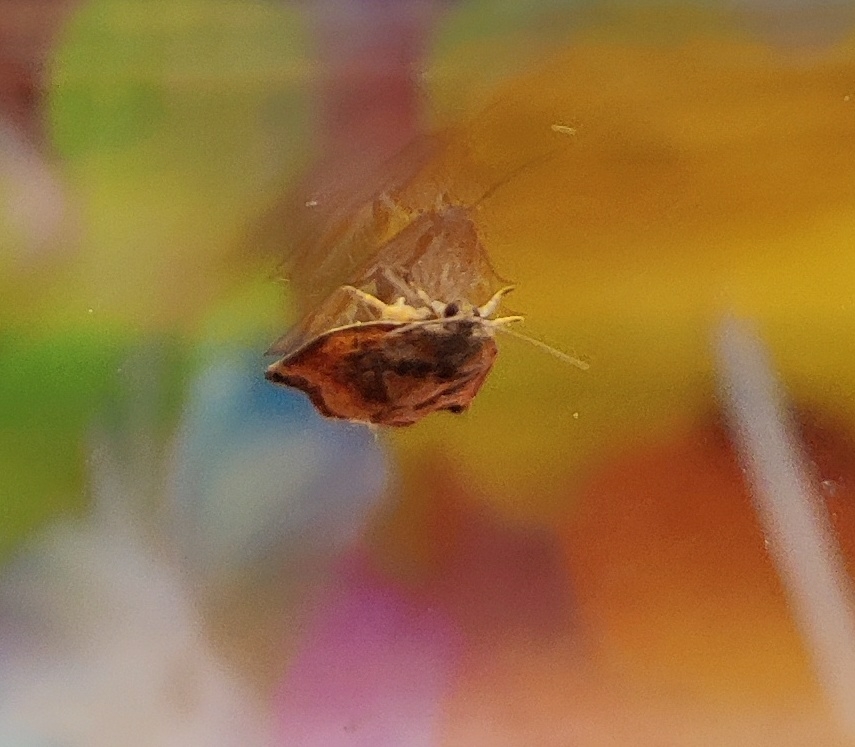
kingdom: Animalia
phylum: Arthropoda
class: Insecta
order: Lepidoptera
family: Tortricidae
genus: Archips
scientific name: Archips podana
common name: Large fruit-tree tortrix
